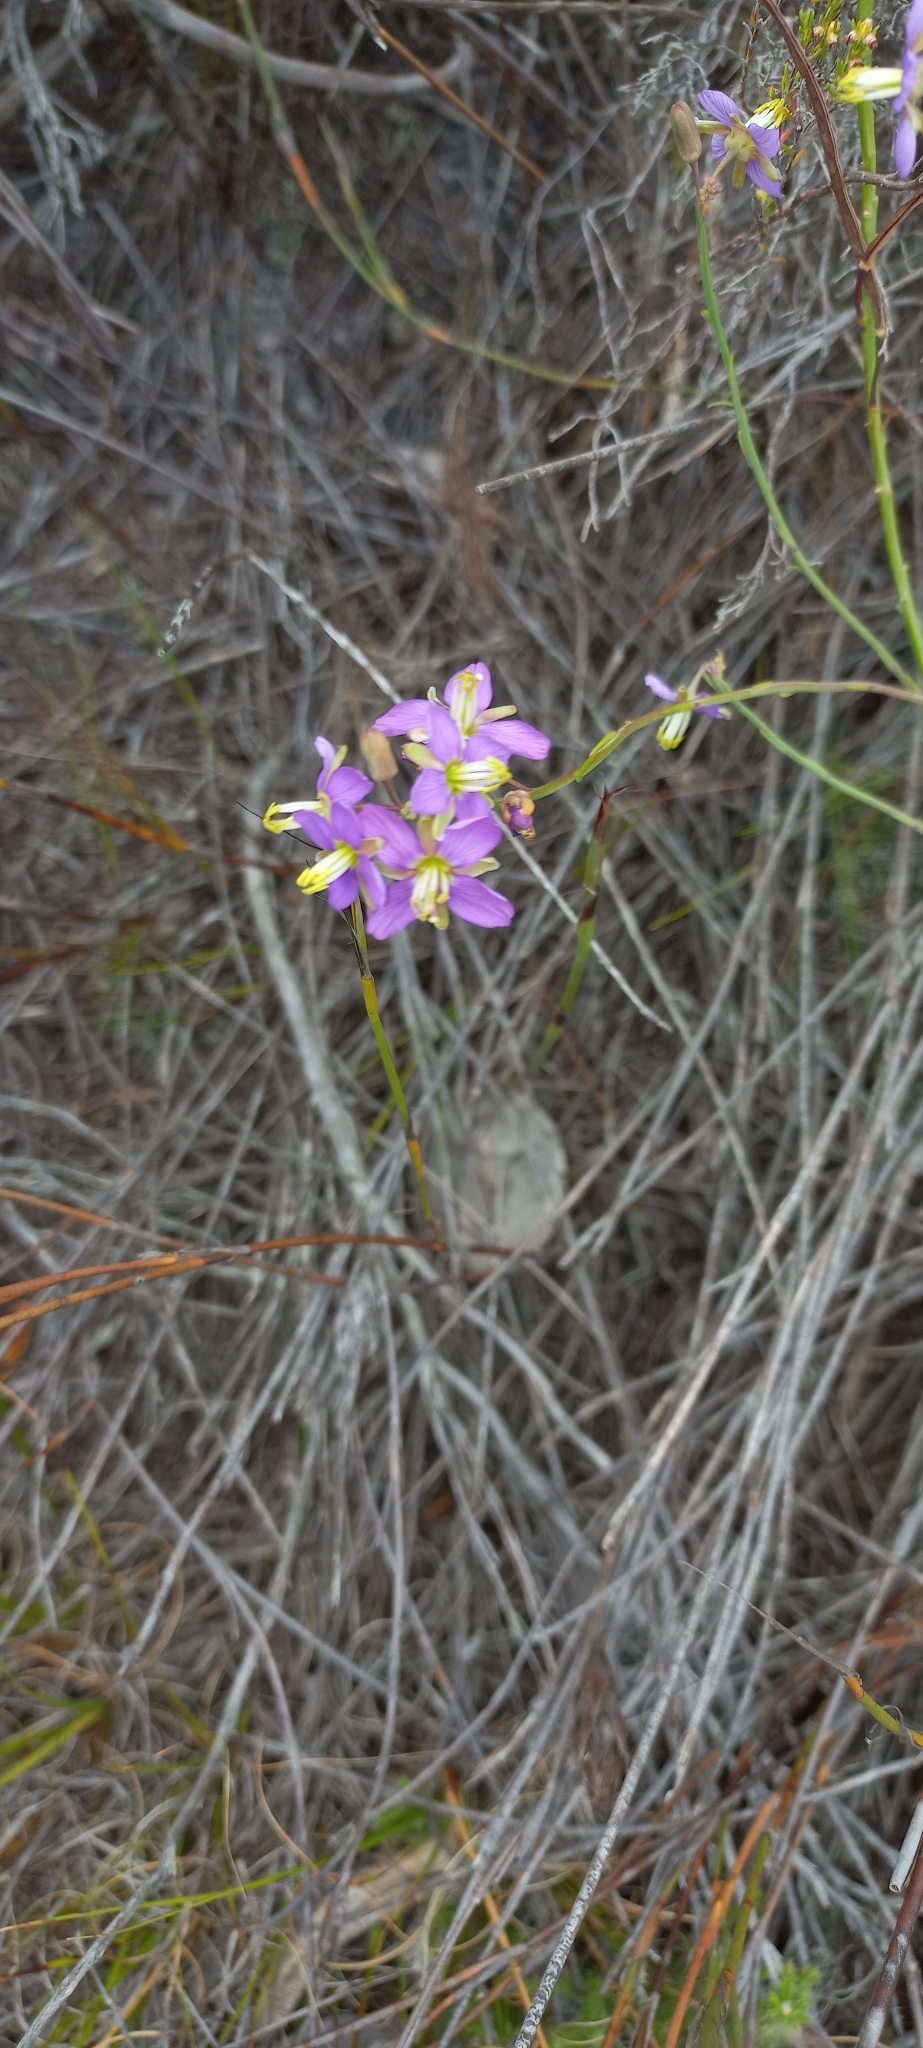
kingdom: Plantae
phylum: Tracheophyta
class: Magnoliopsida
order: Brassicales
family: Brassicaceae
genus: Heliophila
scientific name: Heliophila linearis
